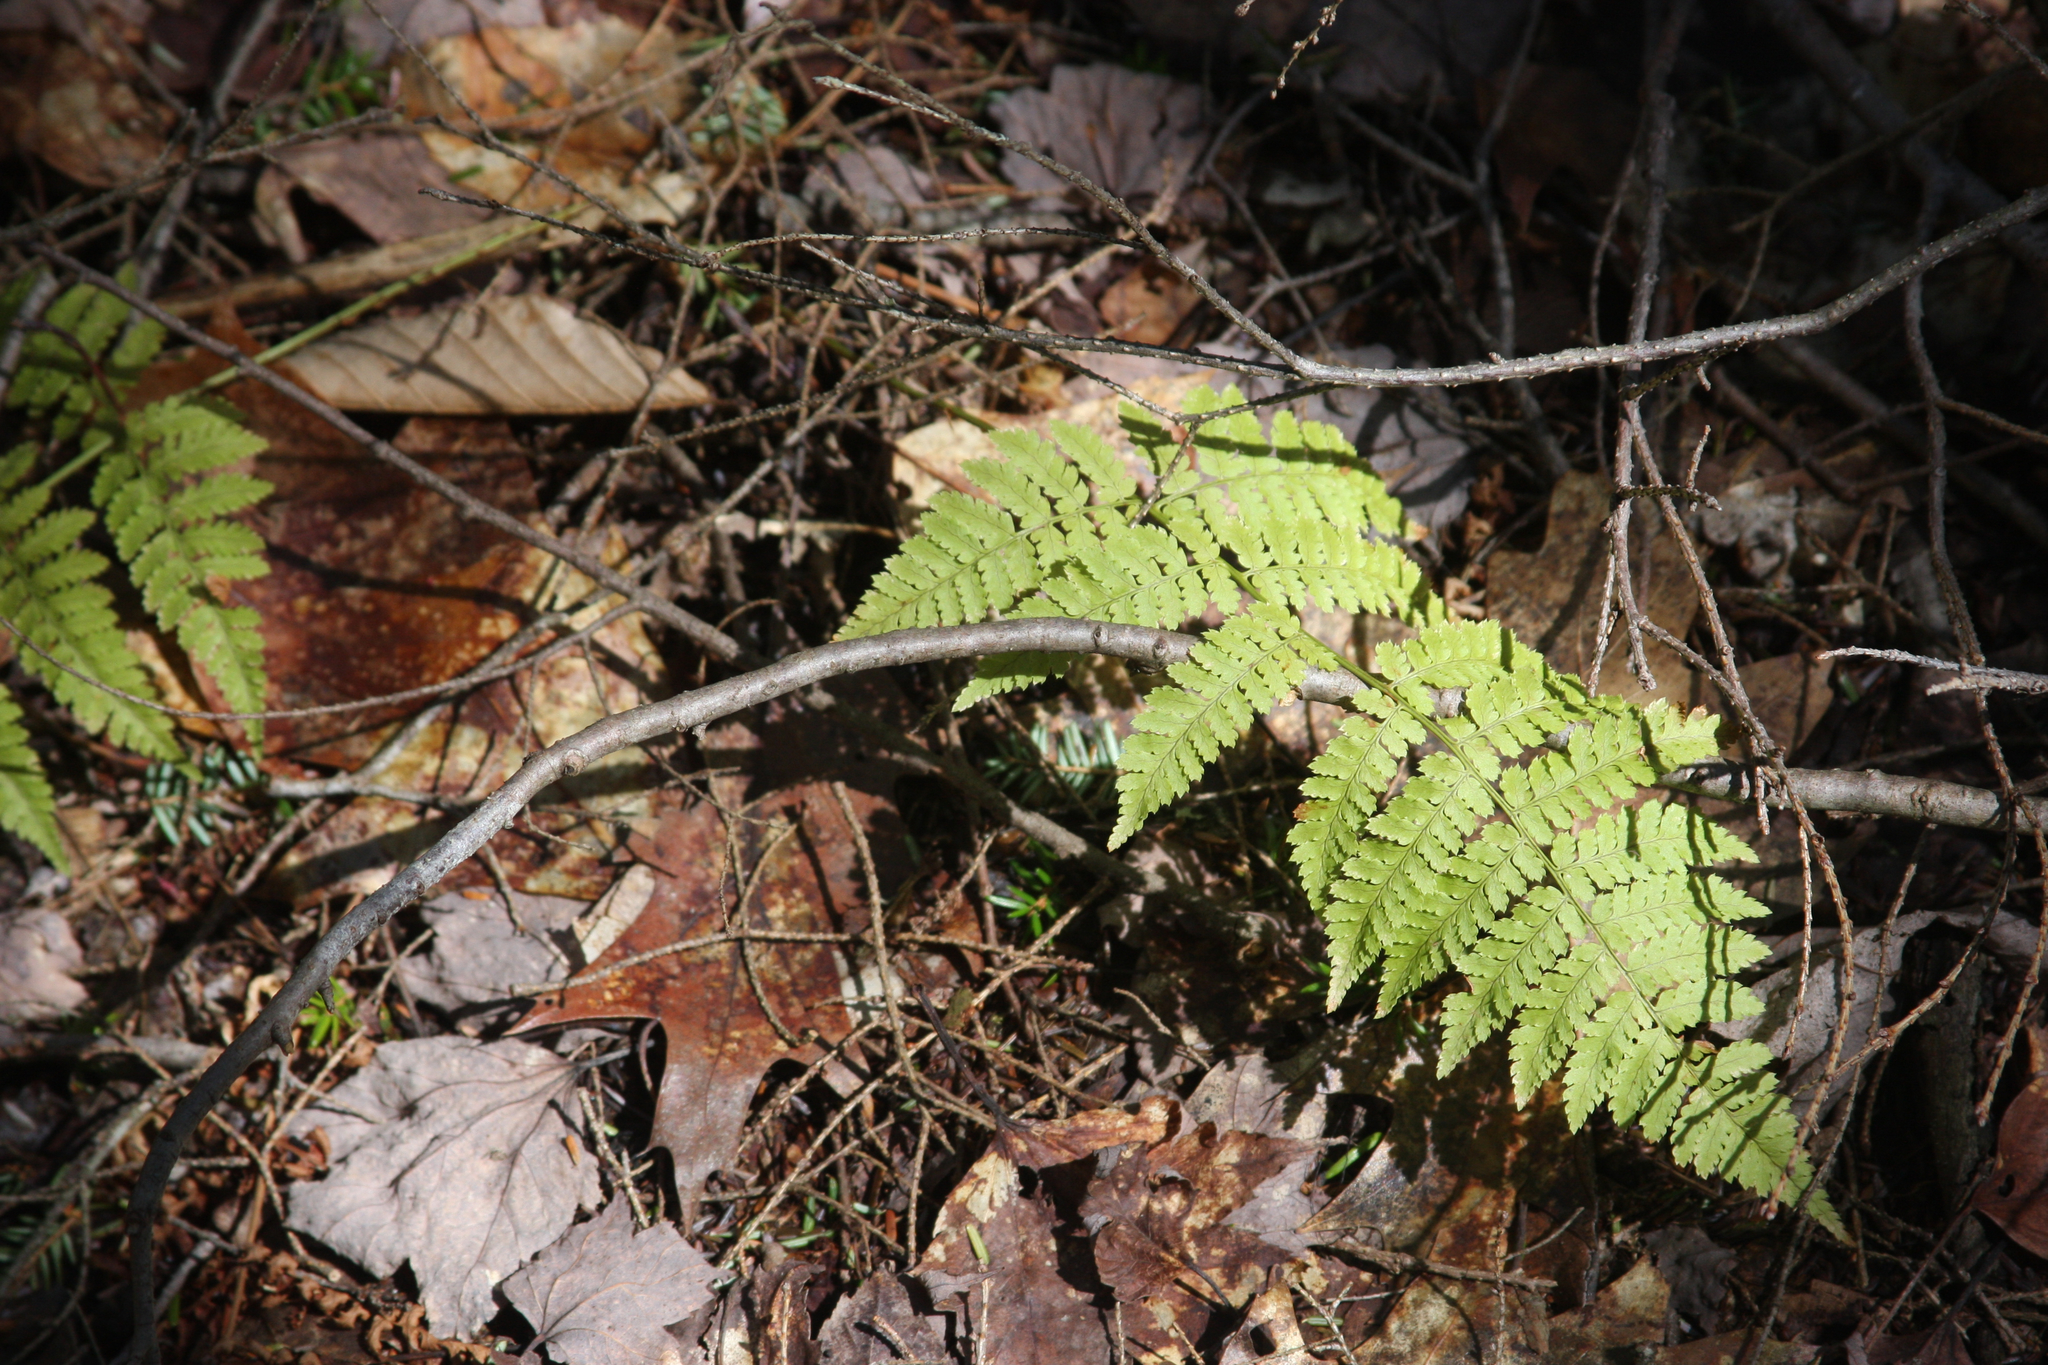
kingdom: Plantae
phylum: Tracheophyta
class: Polypodiopsida
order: Polypodiales
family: Dryopteridaceae
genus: Dryopteris
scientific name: Dryopteris intermedia
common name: Evergreen wood fern
